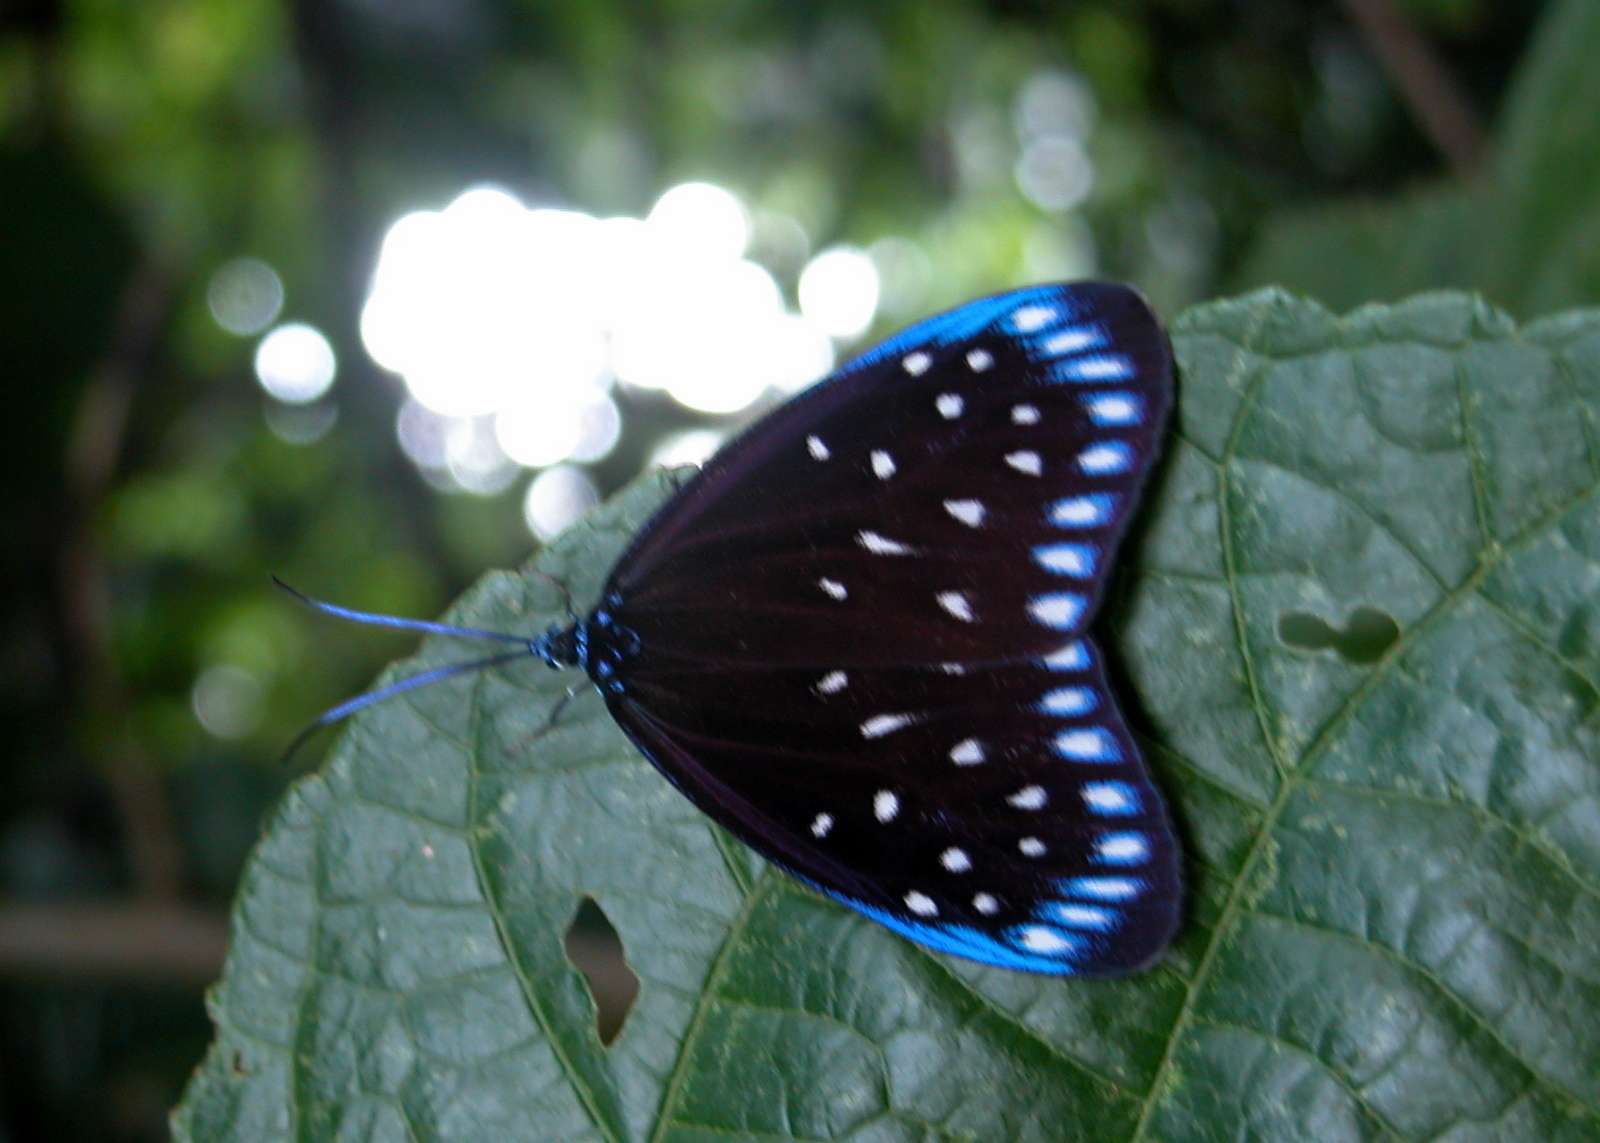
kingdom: Animalia
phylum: Arthropoda
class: Insecta
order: Lepidoptera
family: Zygaenidae
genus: Cyclosia
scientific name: Cyclosia midama
